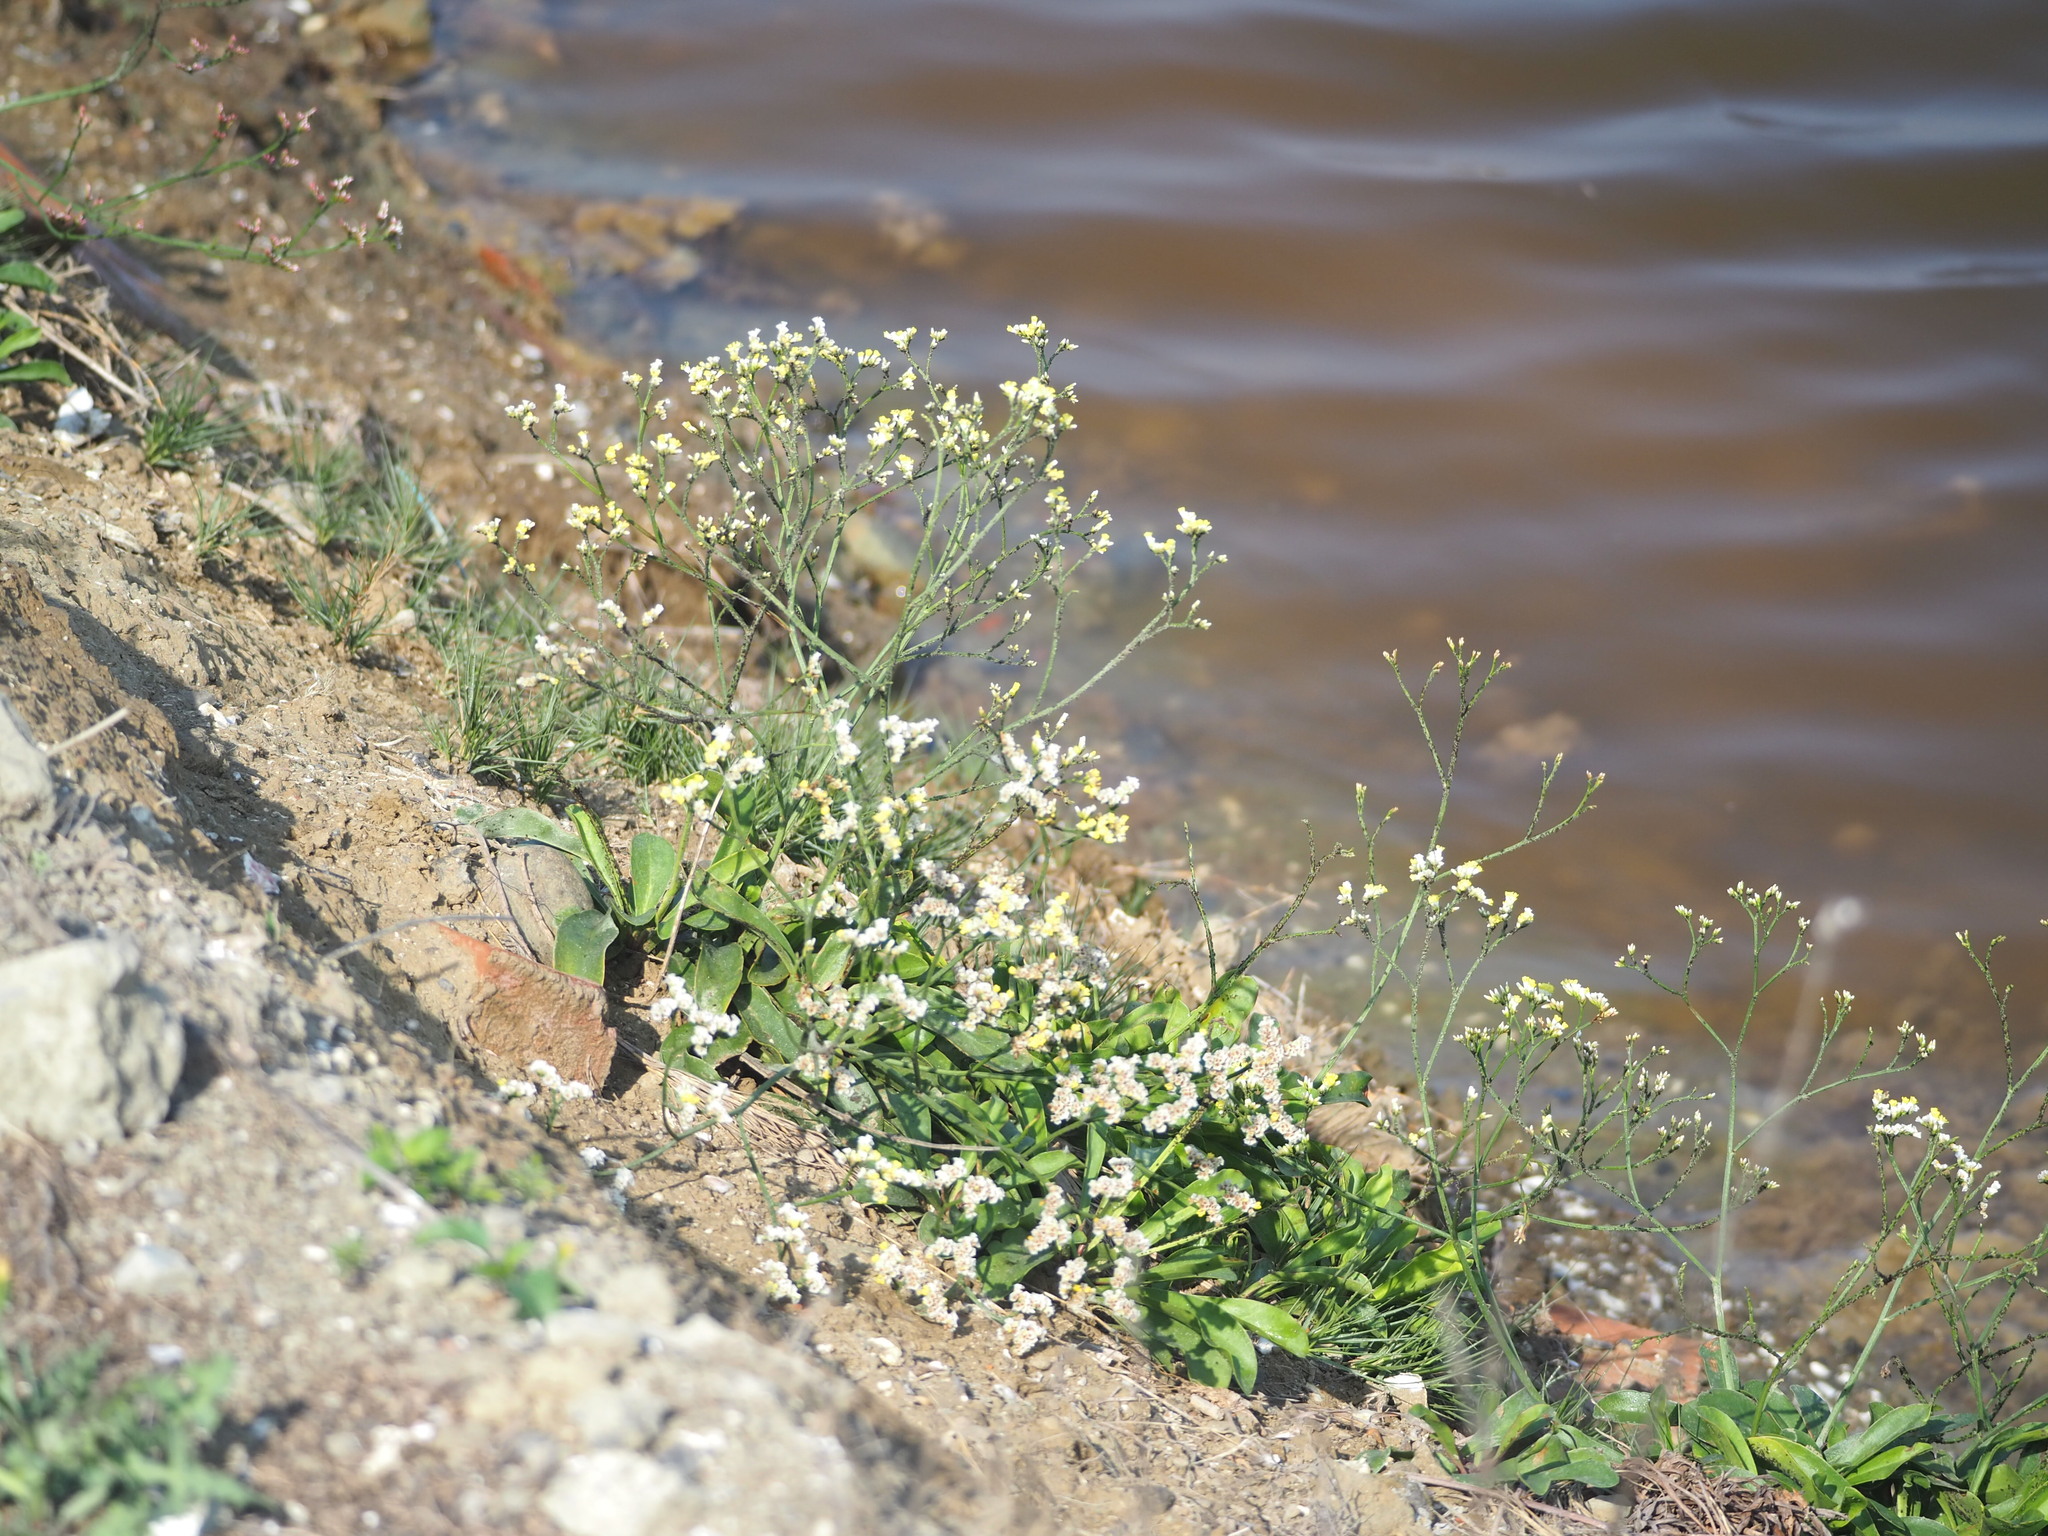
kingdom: Plantae
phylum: Tracheophyta
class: Magnoliopsida
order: Caryophyllales
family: Plumbaginaceae
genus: Limonium
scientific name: Limonium sinense
